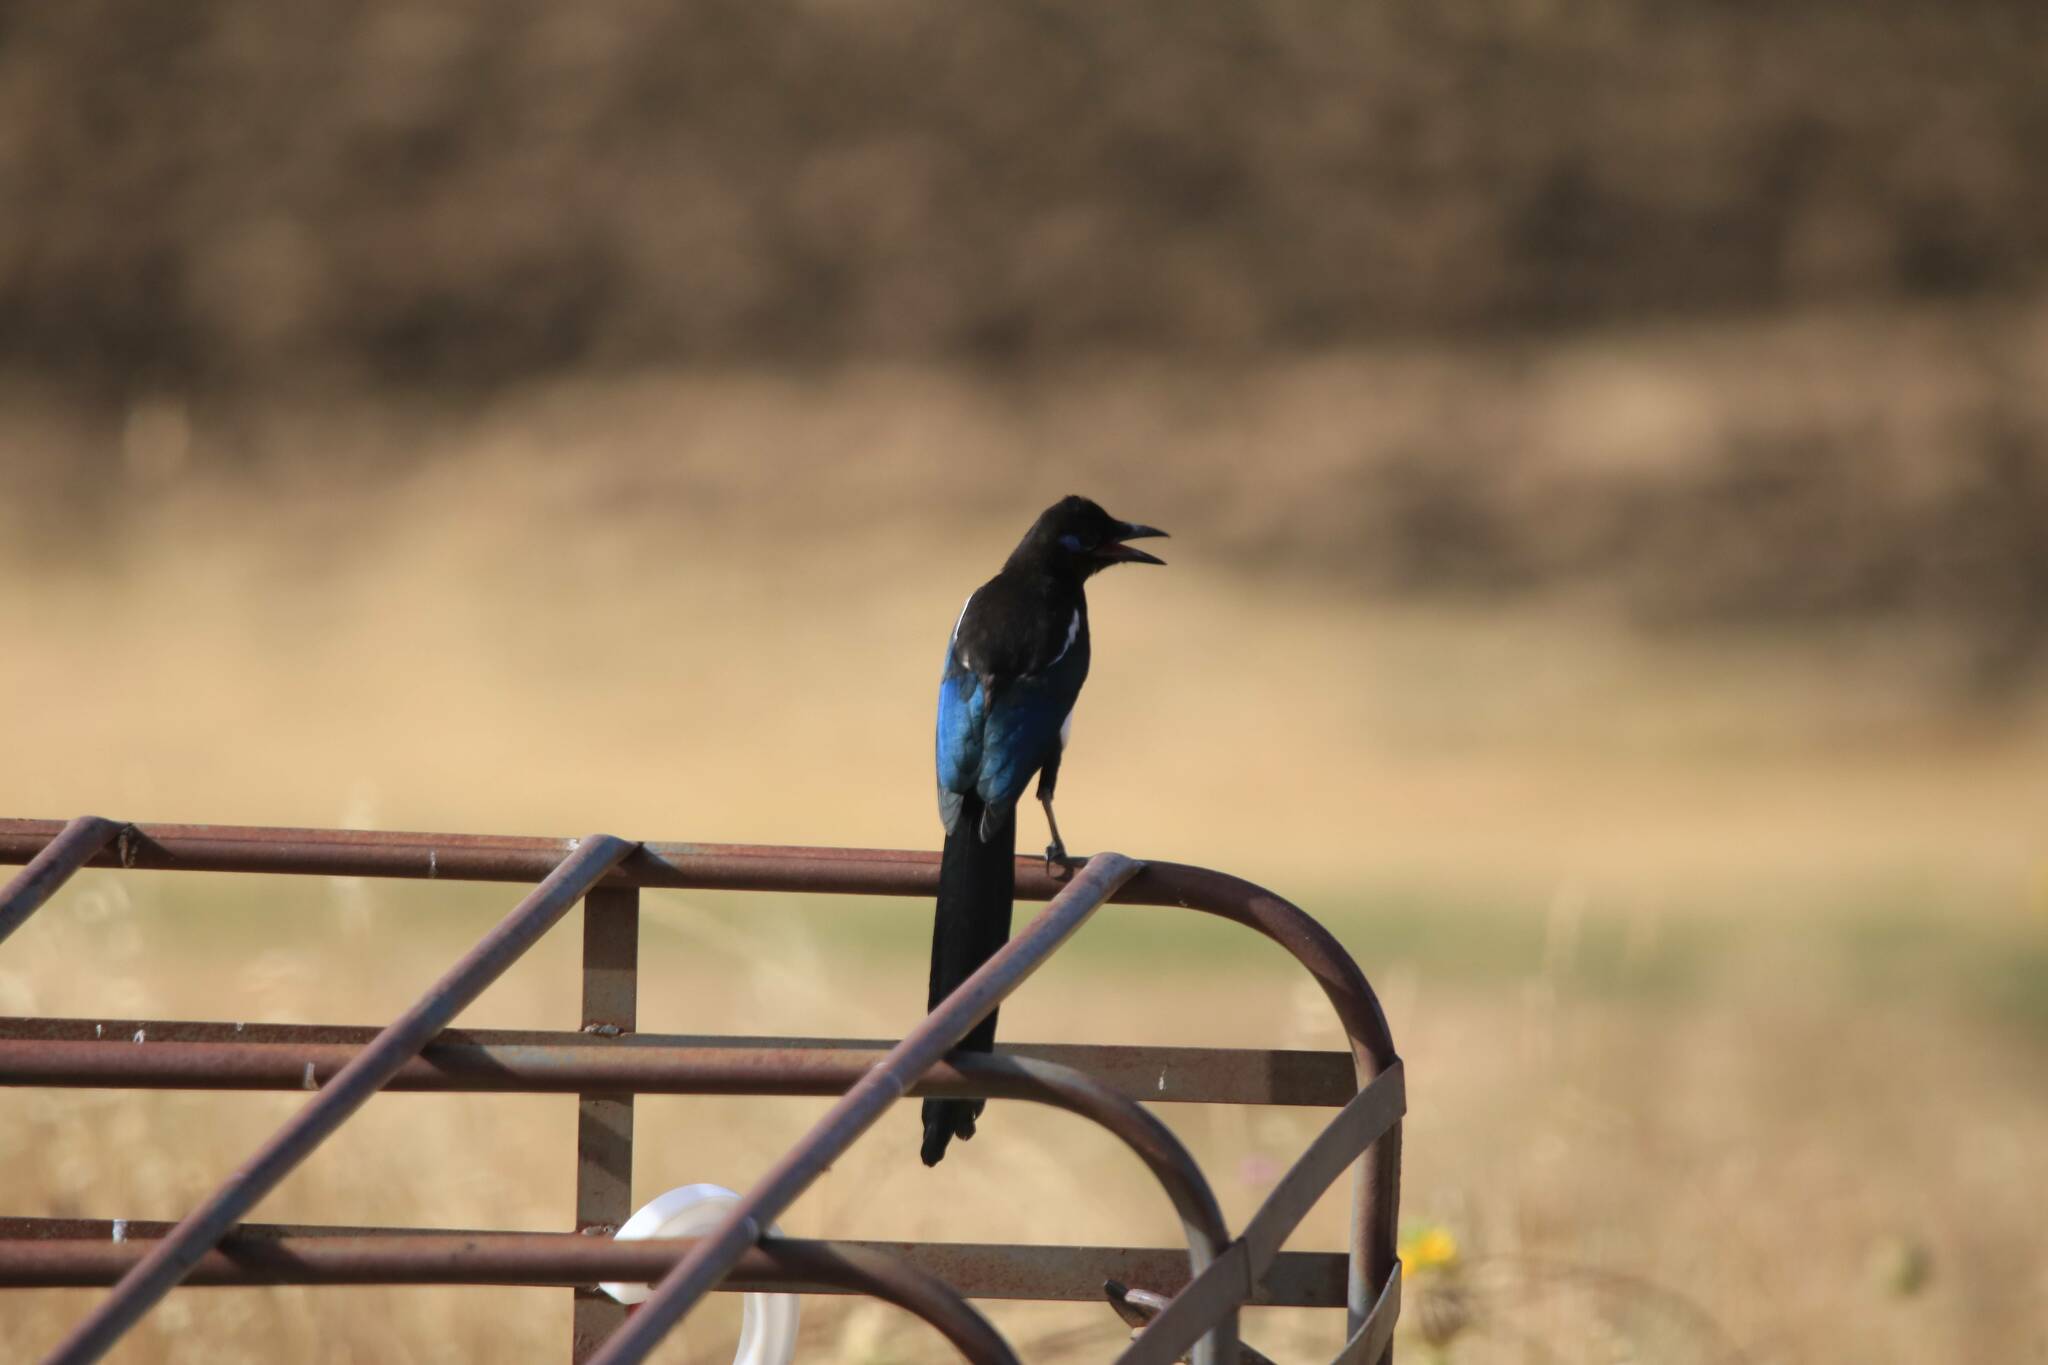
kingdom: Animalia
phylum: Chordata
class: Aves
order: Passeriformes
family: Corvidae
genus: Pica
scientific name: Pica mauritanica
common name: Maghreb magpie
